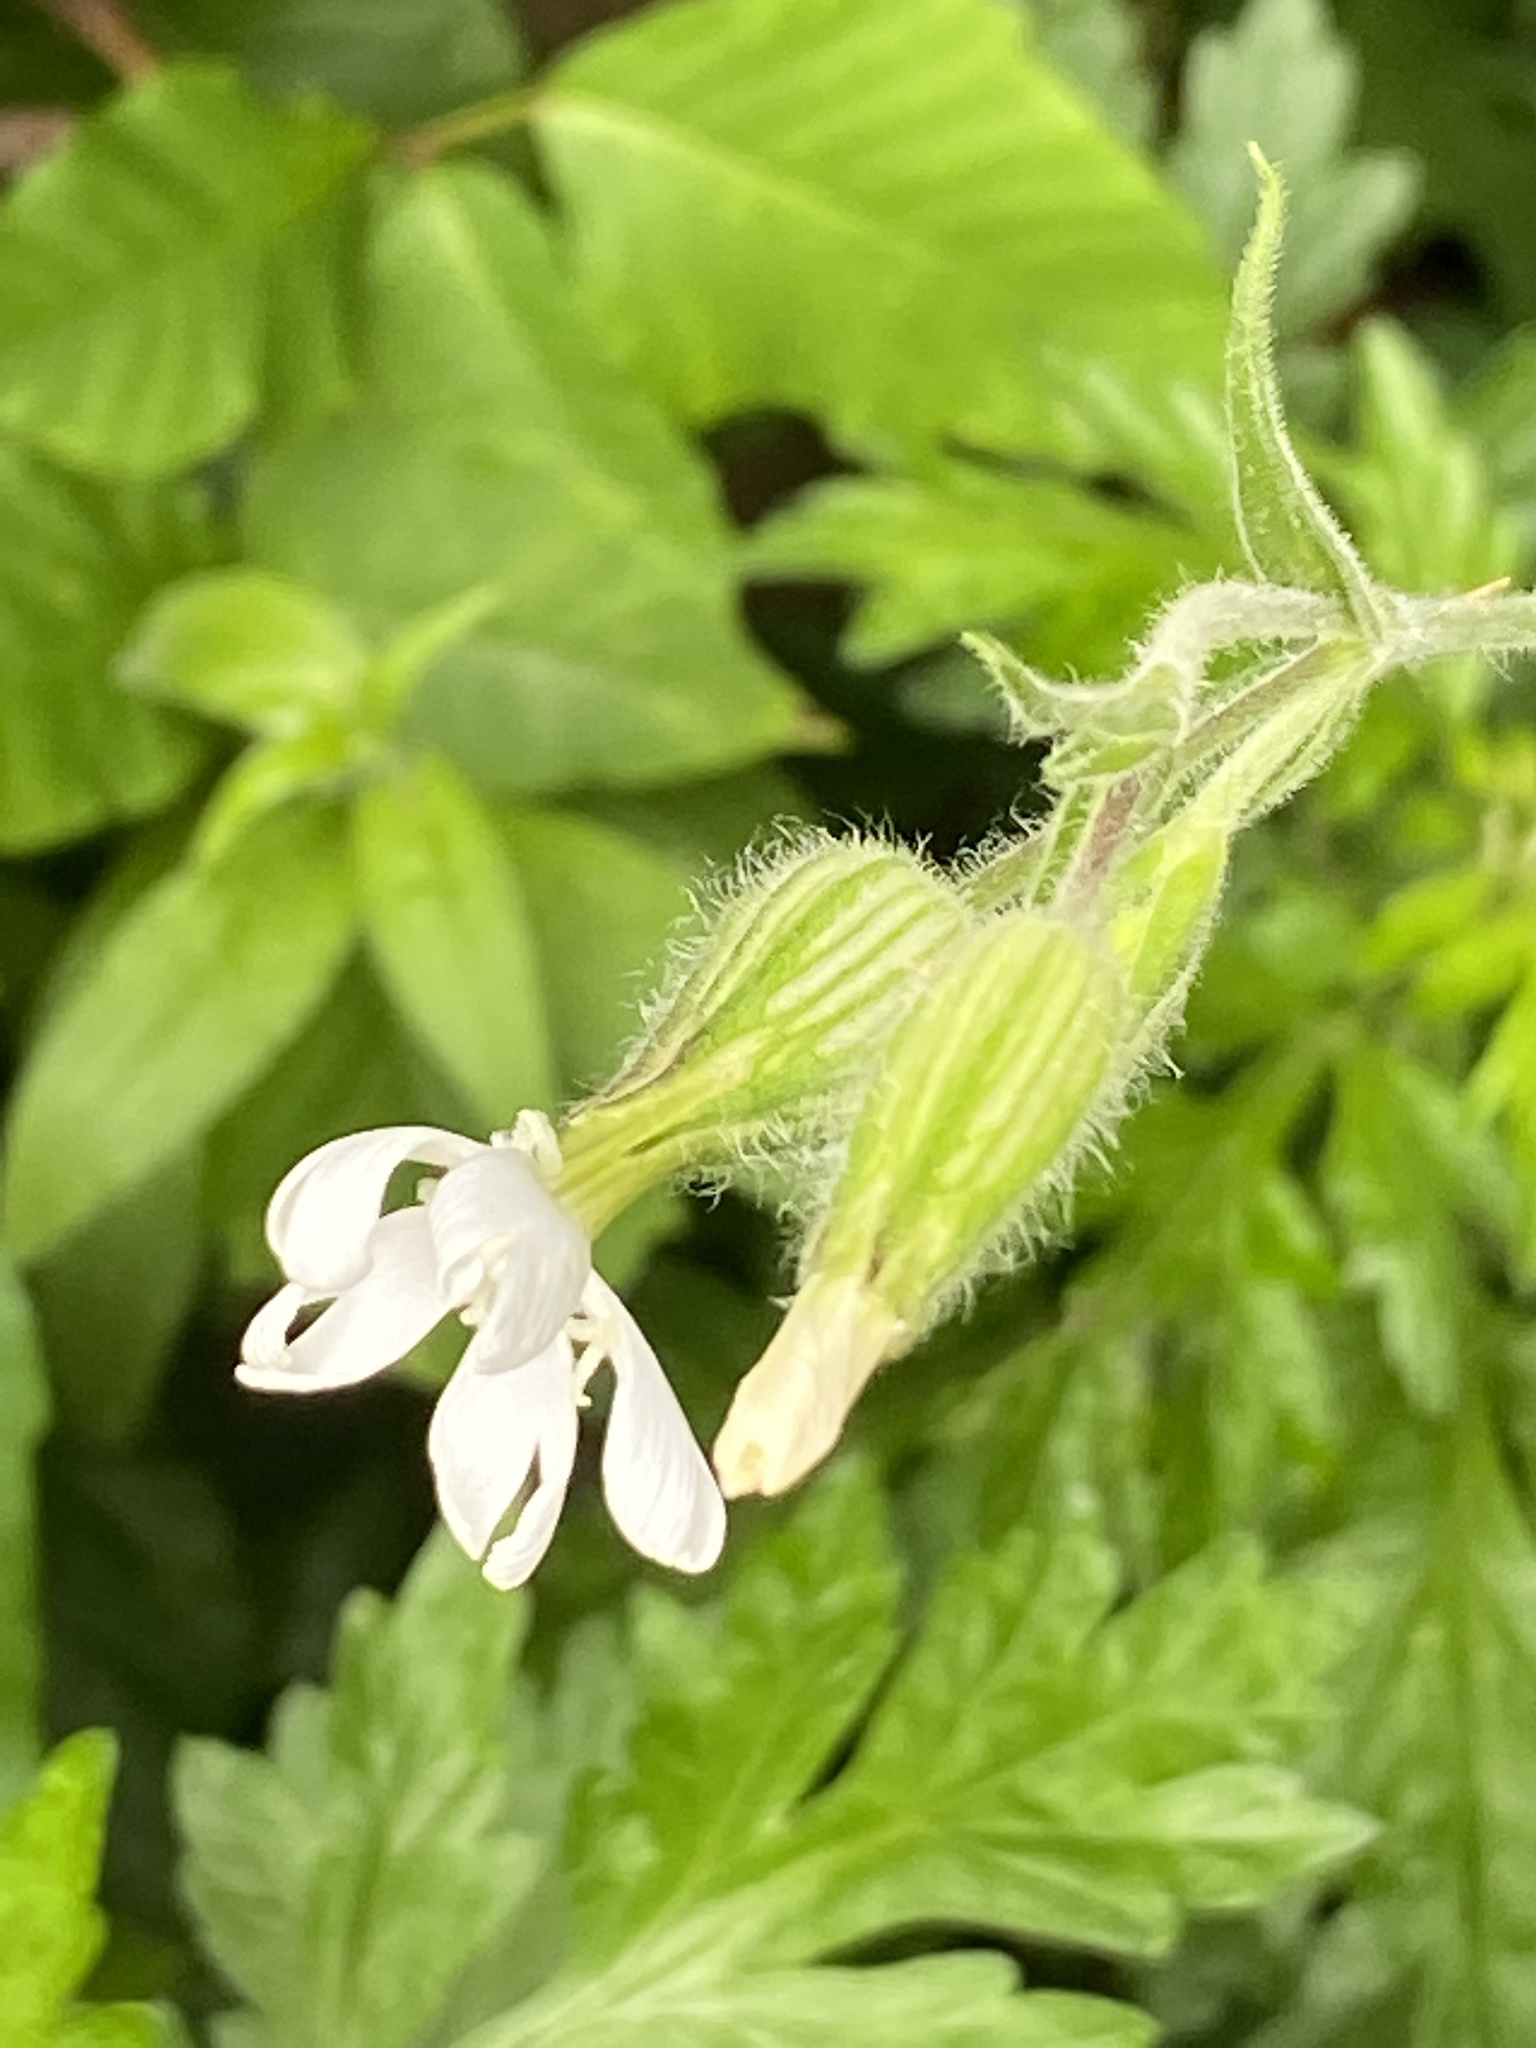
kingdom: Plantae
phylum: Tracheophyta
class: Magnoliopsida
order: Caryophyllales
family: Caryophyllaceae
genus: Silene
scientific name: Silene latifolia
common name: White campion
